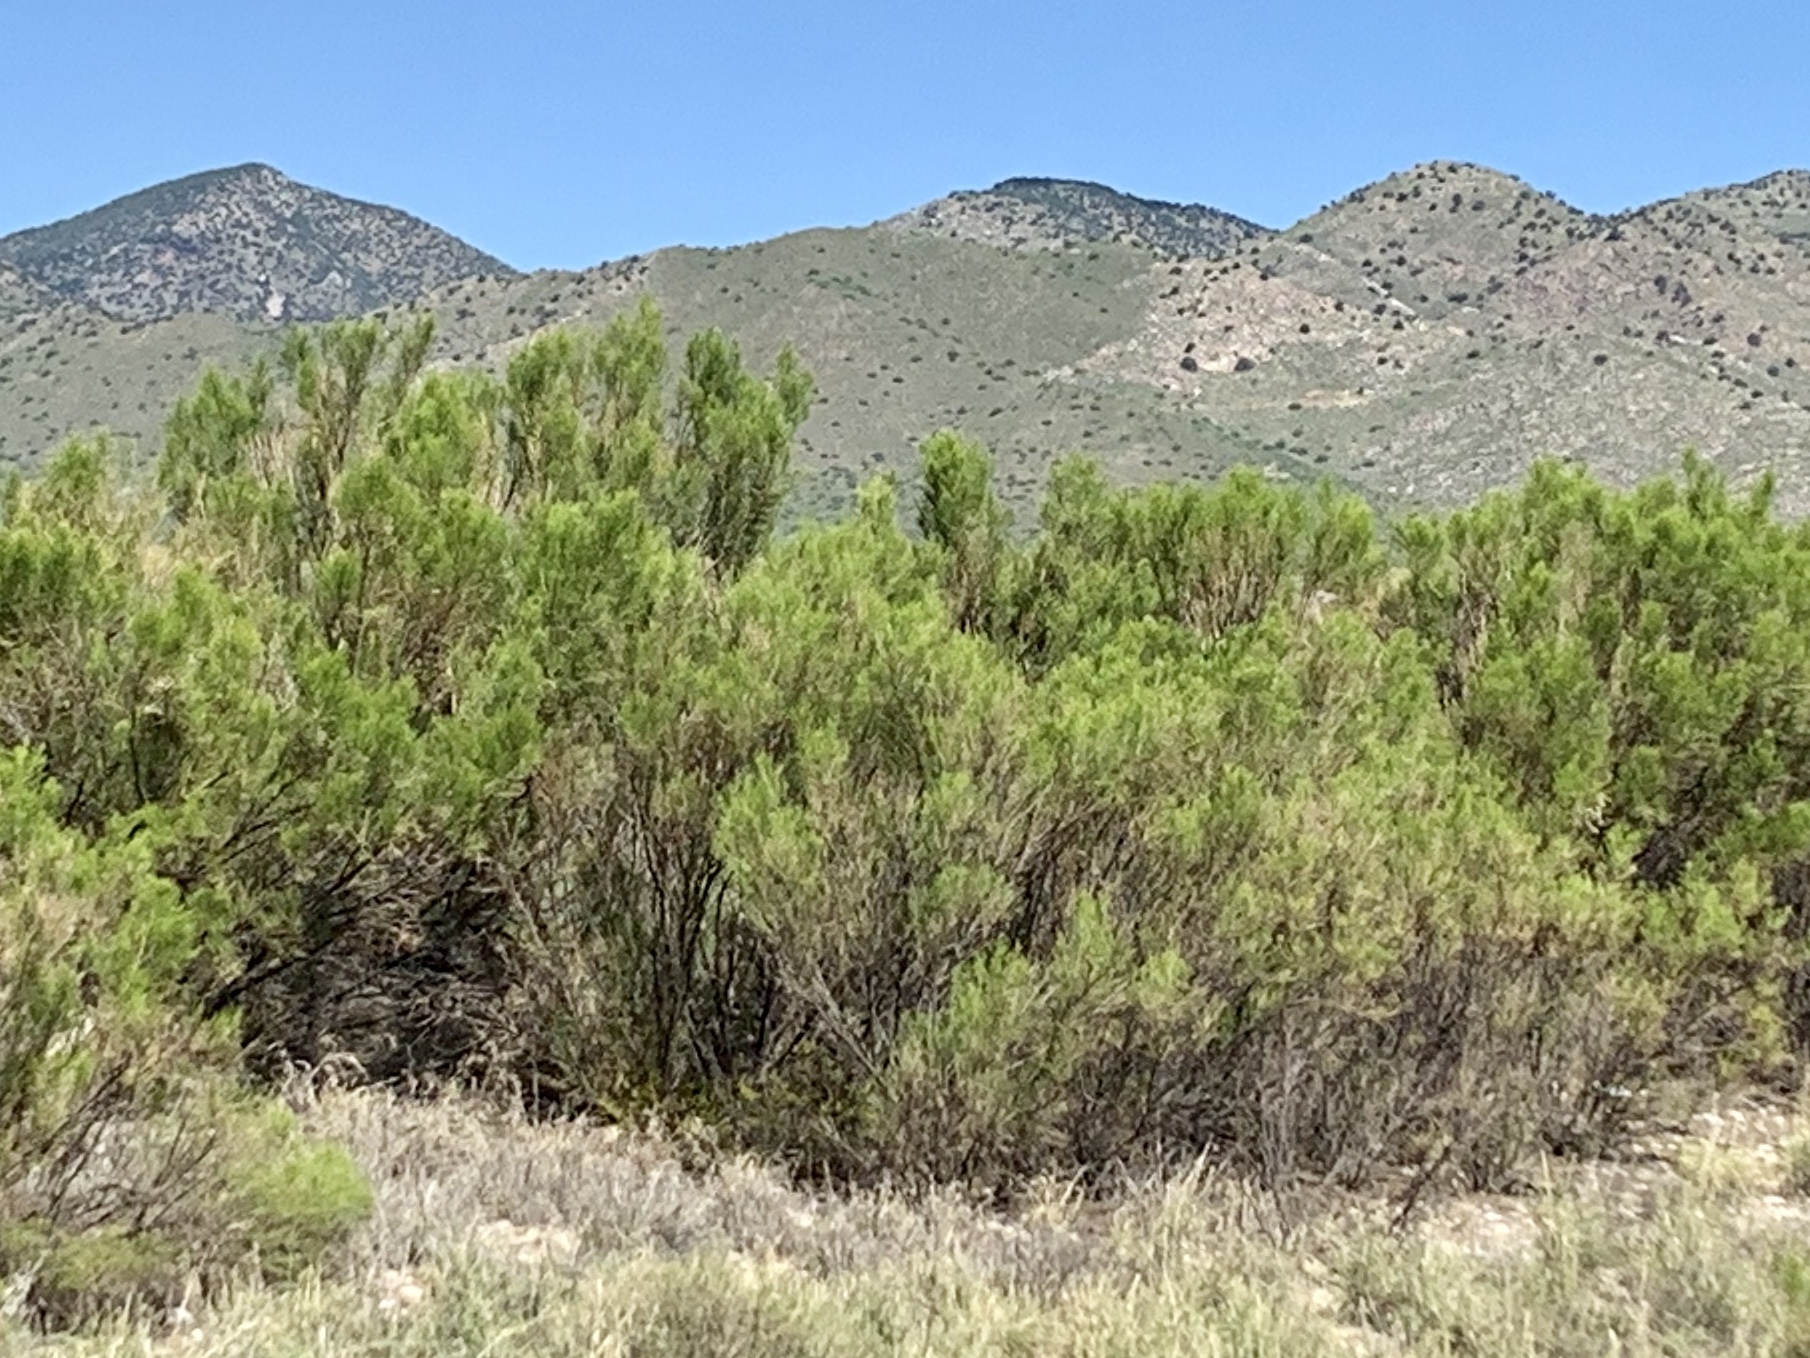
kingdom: Plantae
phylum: Tracheophyta
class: Magnoliopsida
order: Asterales
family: Asteraceae
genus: Baccharis
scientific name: Baccharis sarothroides
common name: Desert-broom
